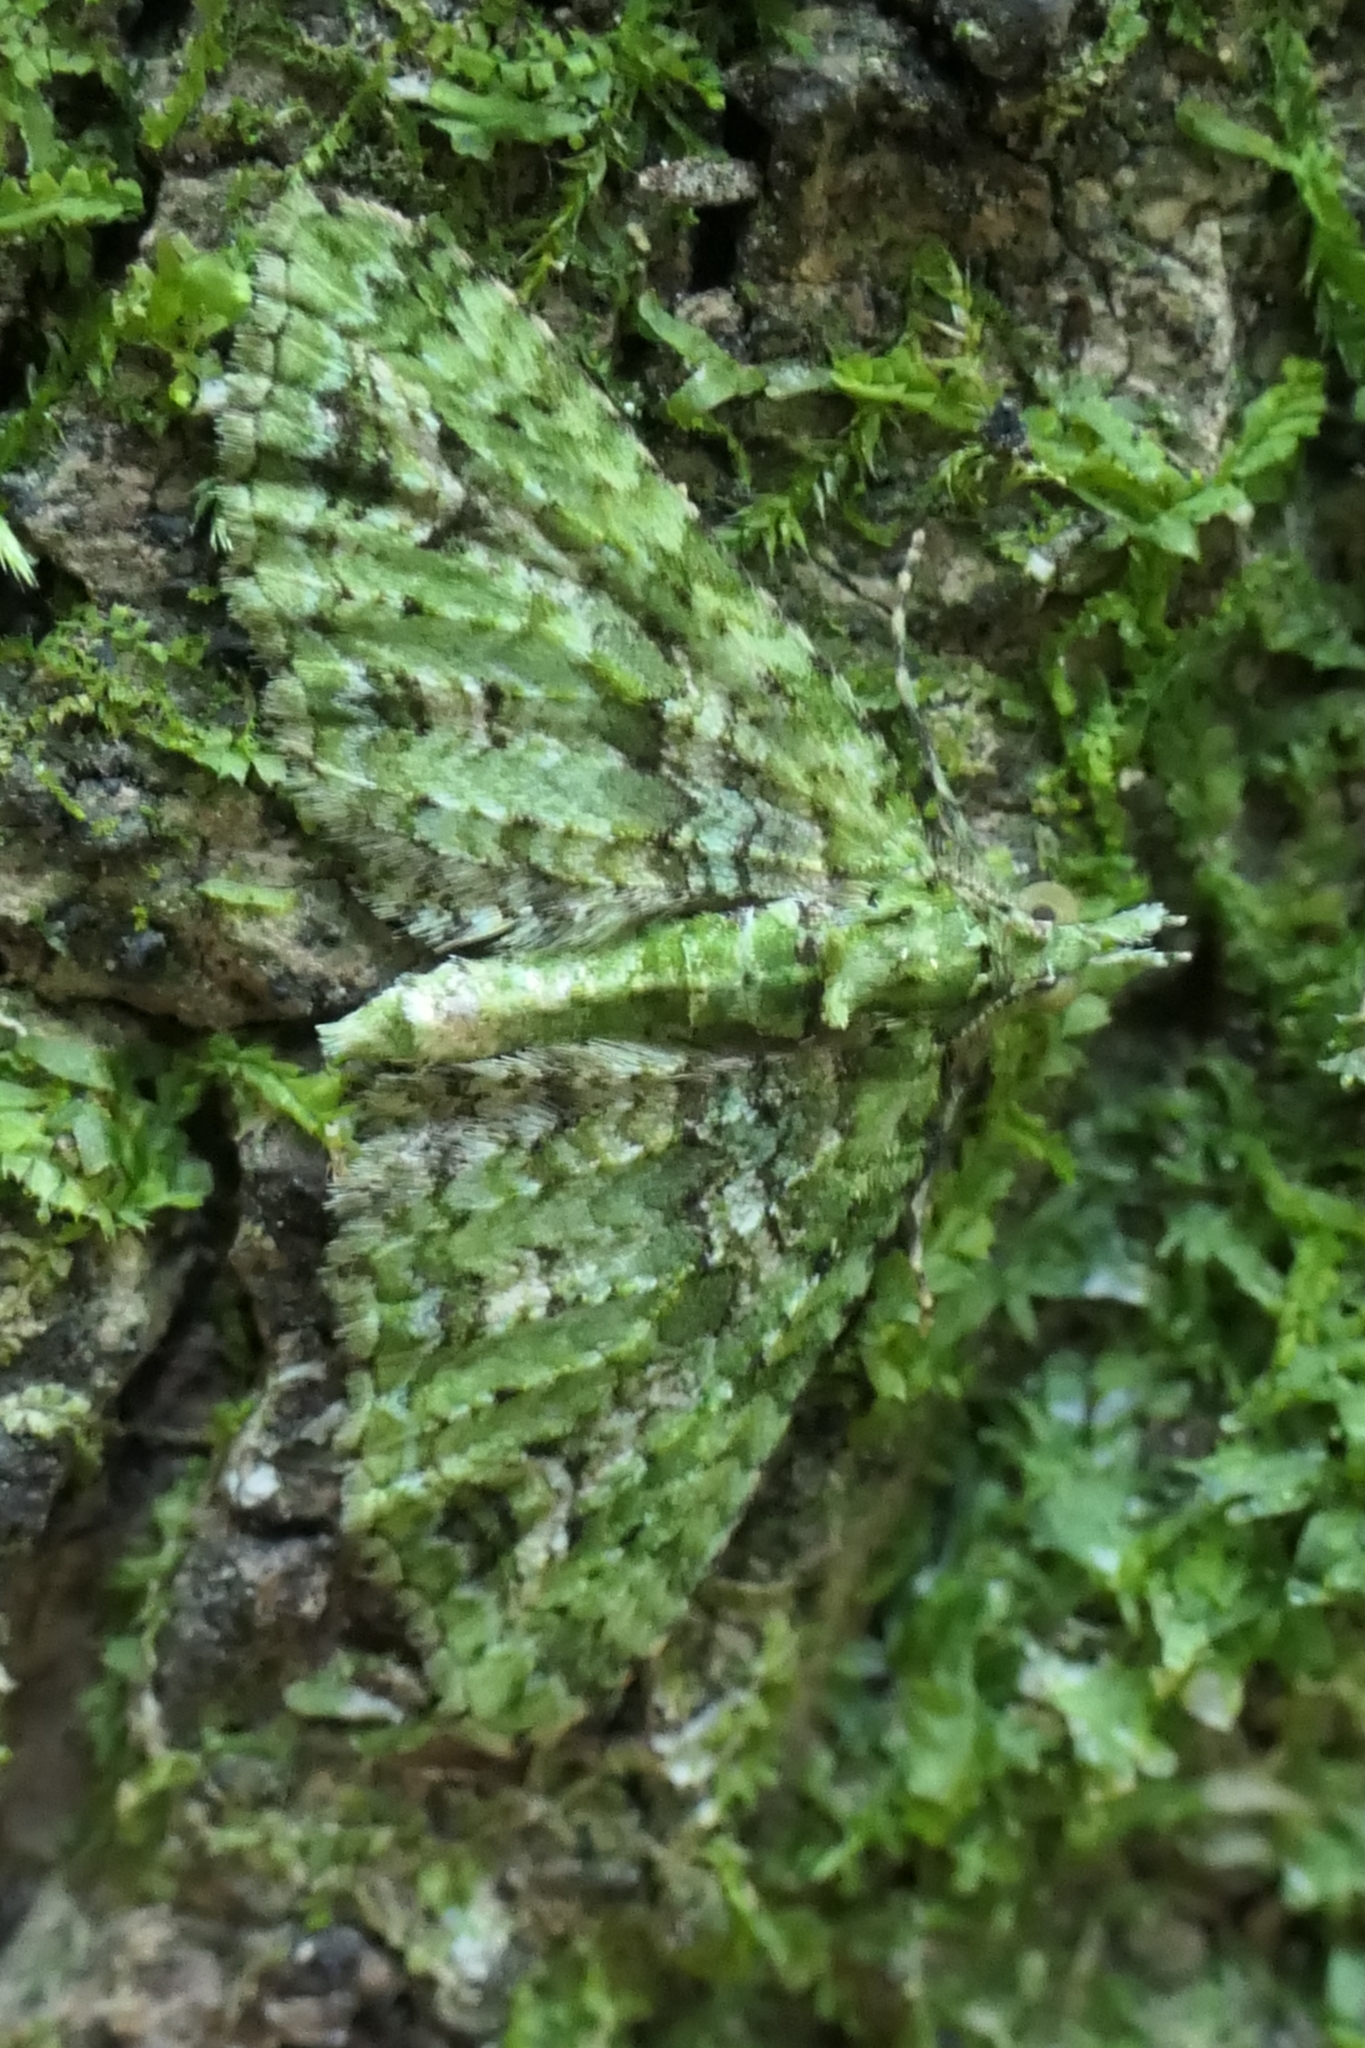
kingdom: Animalia
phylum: Arthropoda
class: Insecta
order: Lepidoptera
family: Geometridae
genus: Pasiphila
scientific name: Pasiphila muscosata
